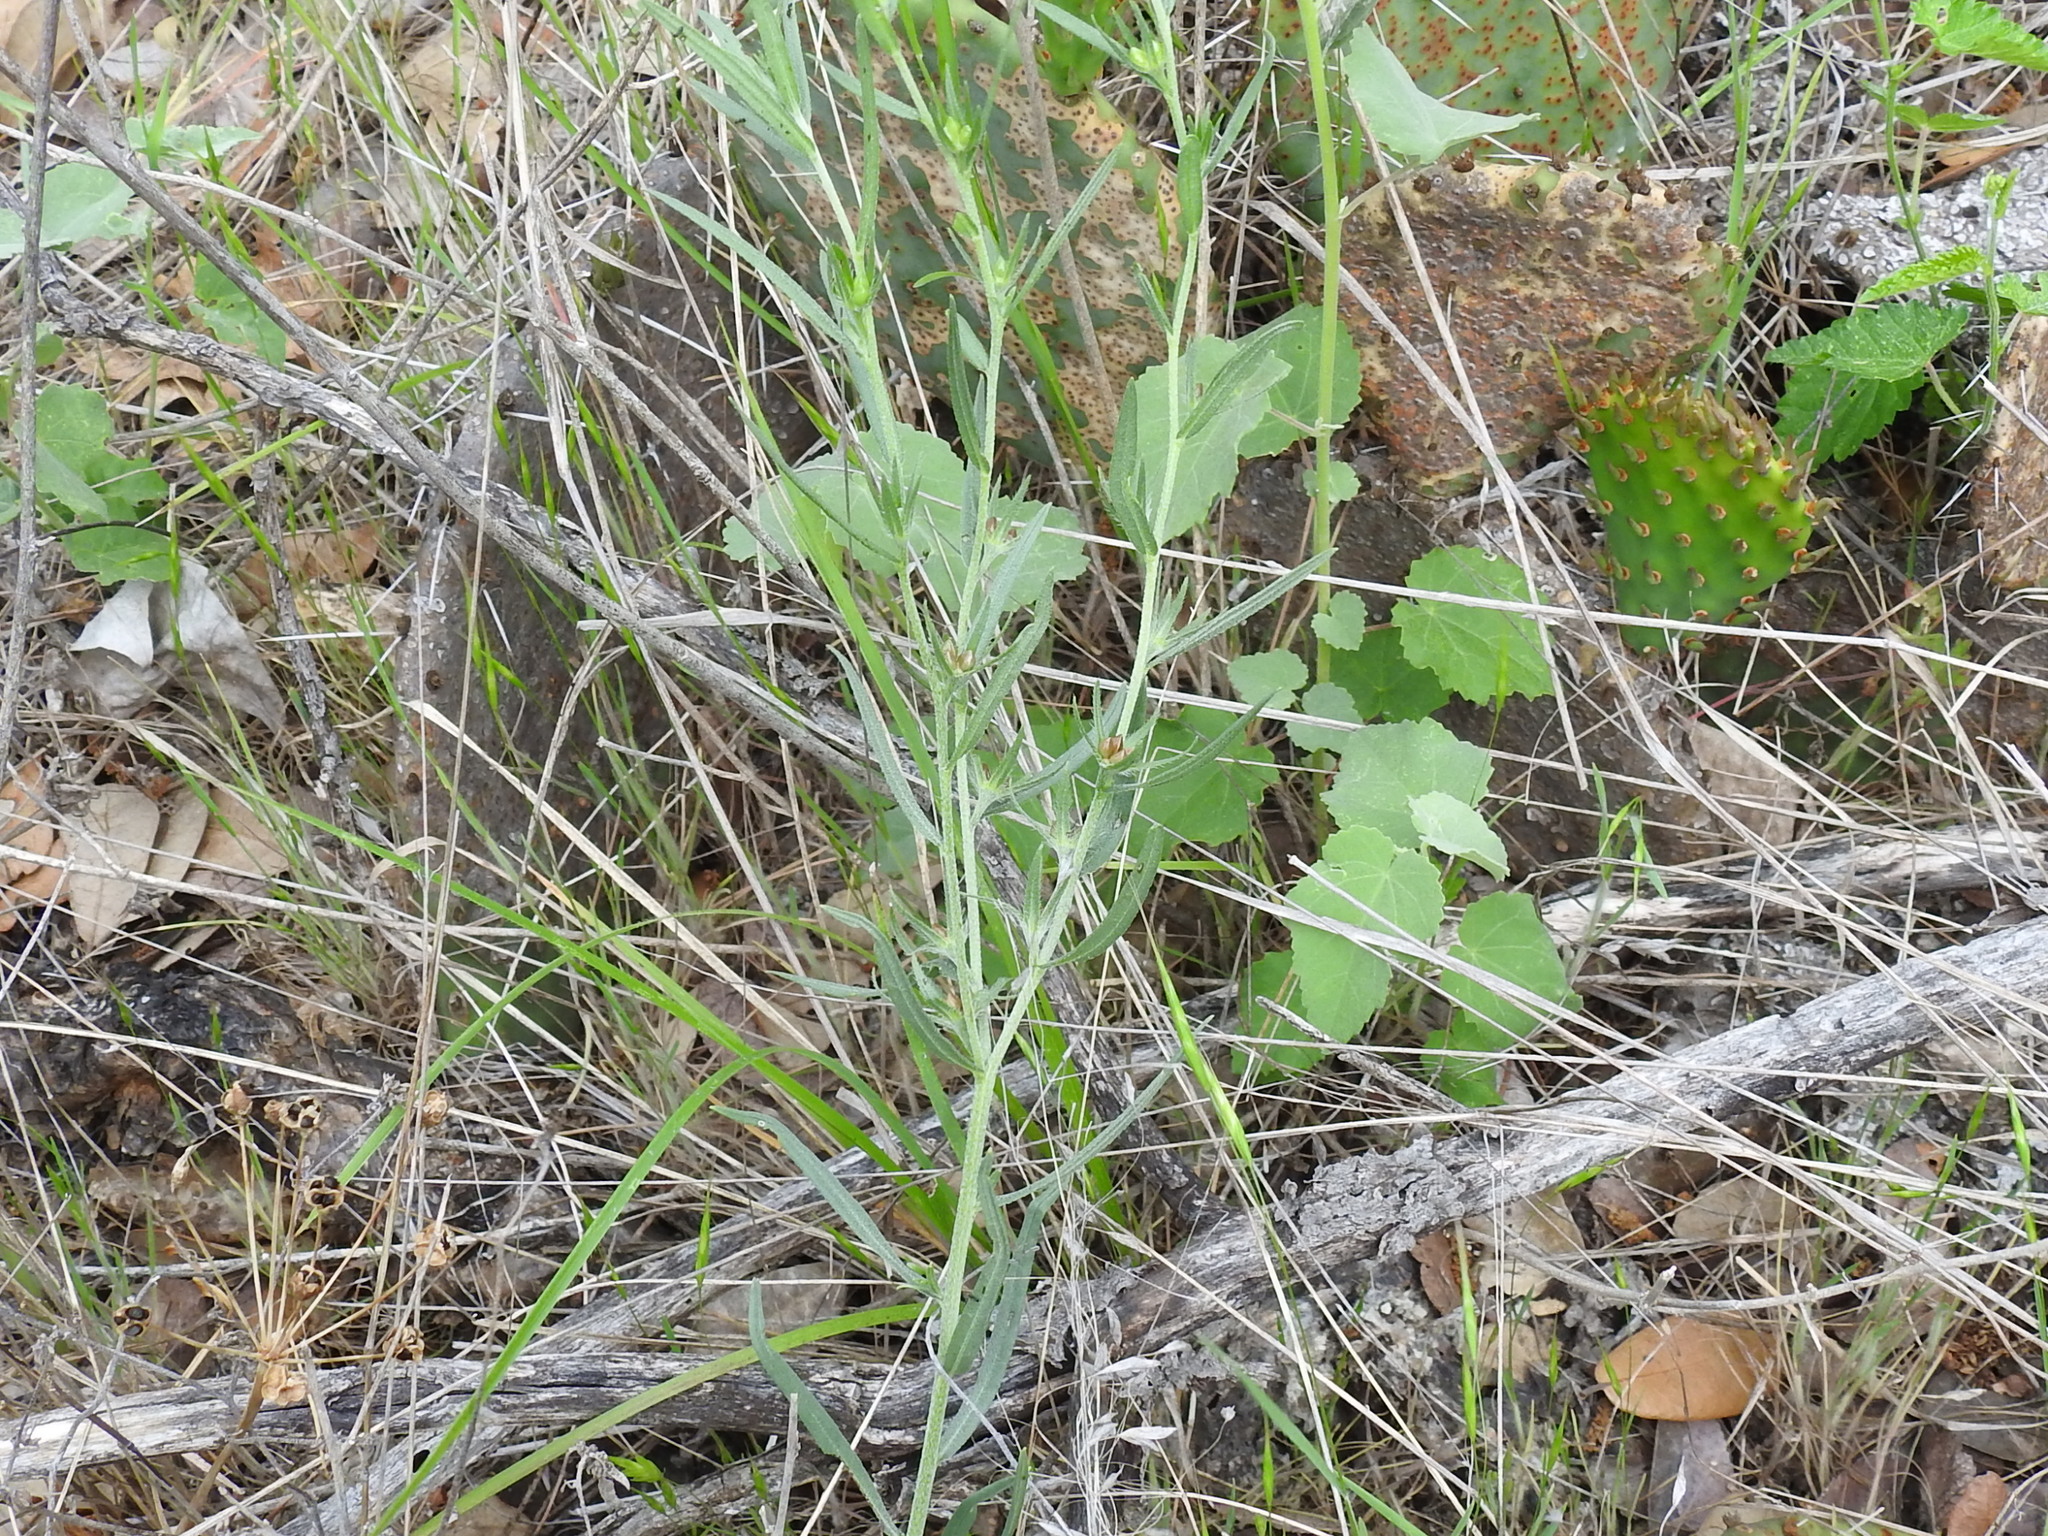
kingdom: Plantae
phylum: Tracheophyta
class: Magnoliopsida
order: Boraginales
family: Boraginaceae
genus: Buglossoides
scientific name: Buglossoides arvensis
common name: Corn gromwell
